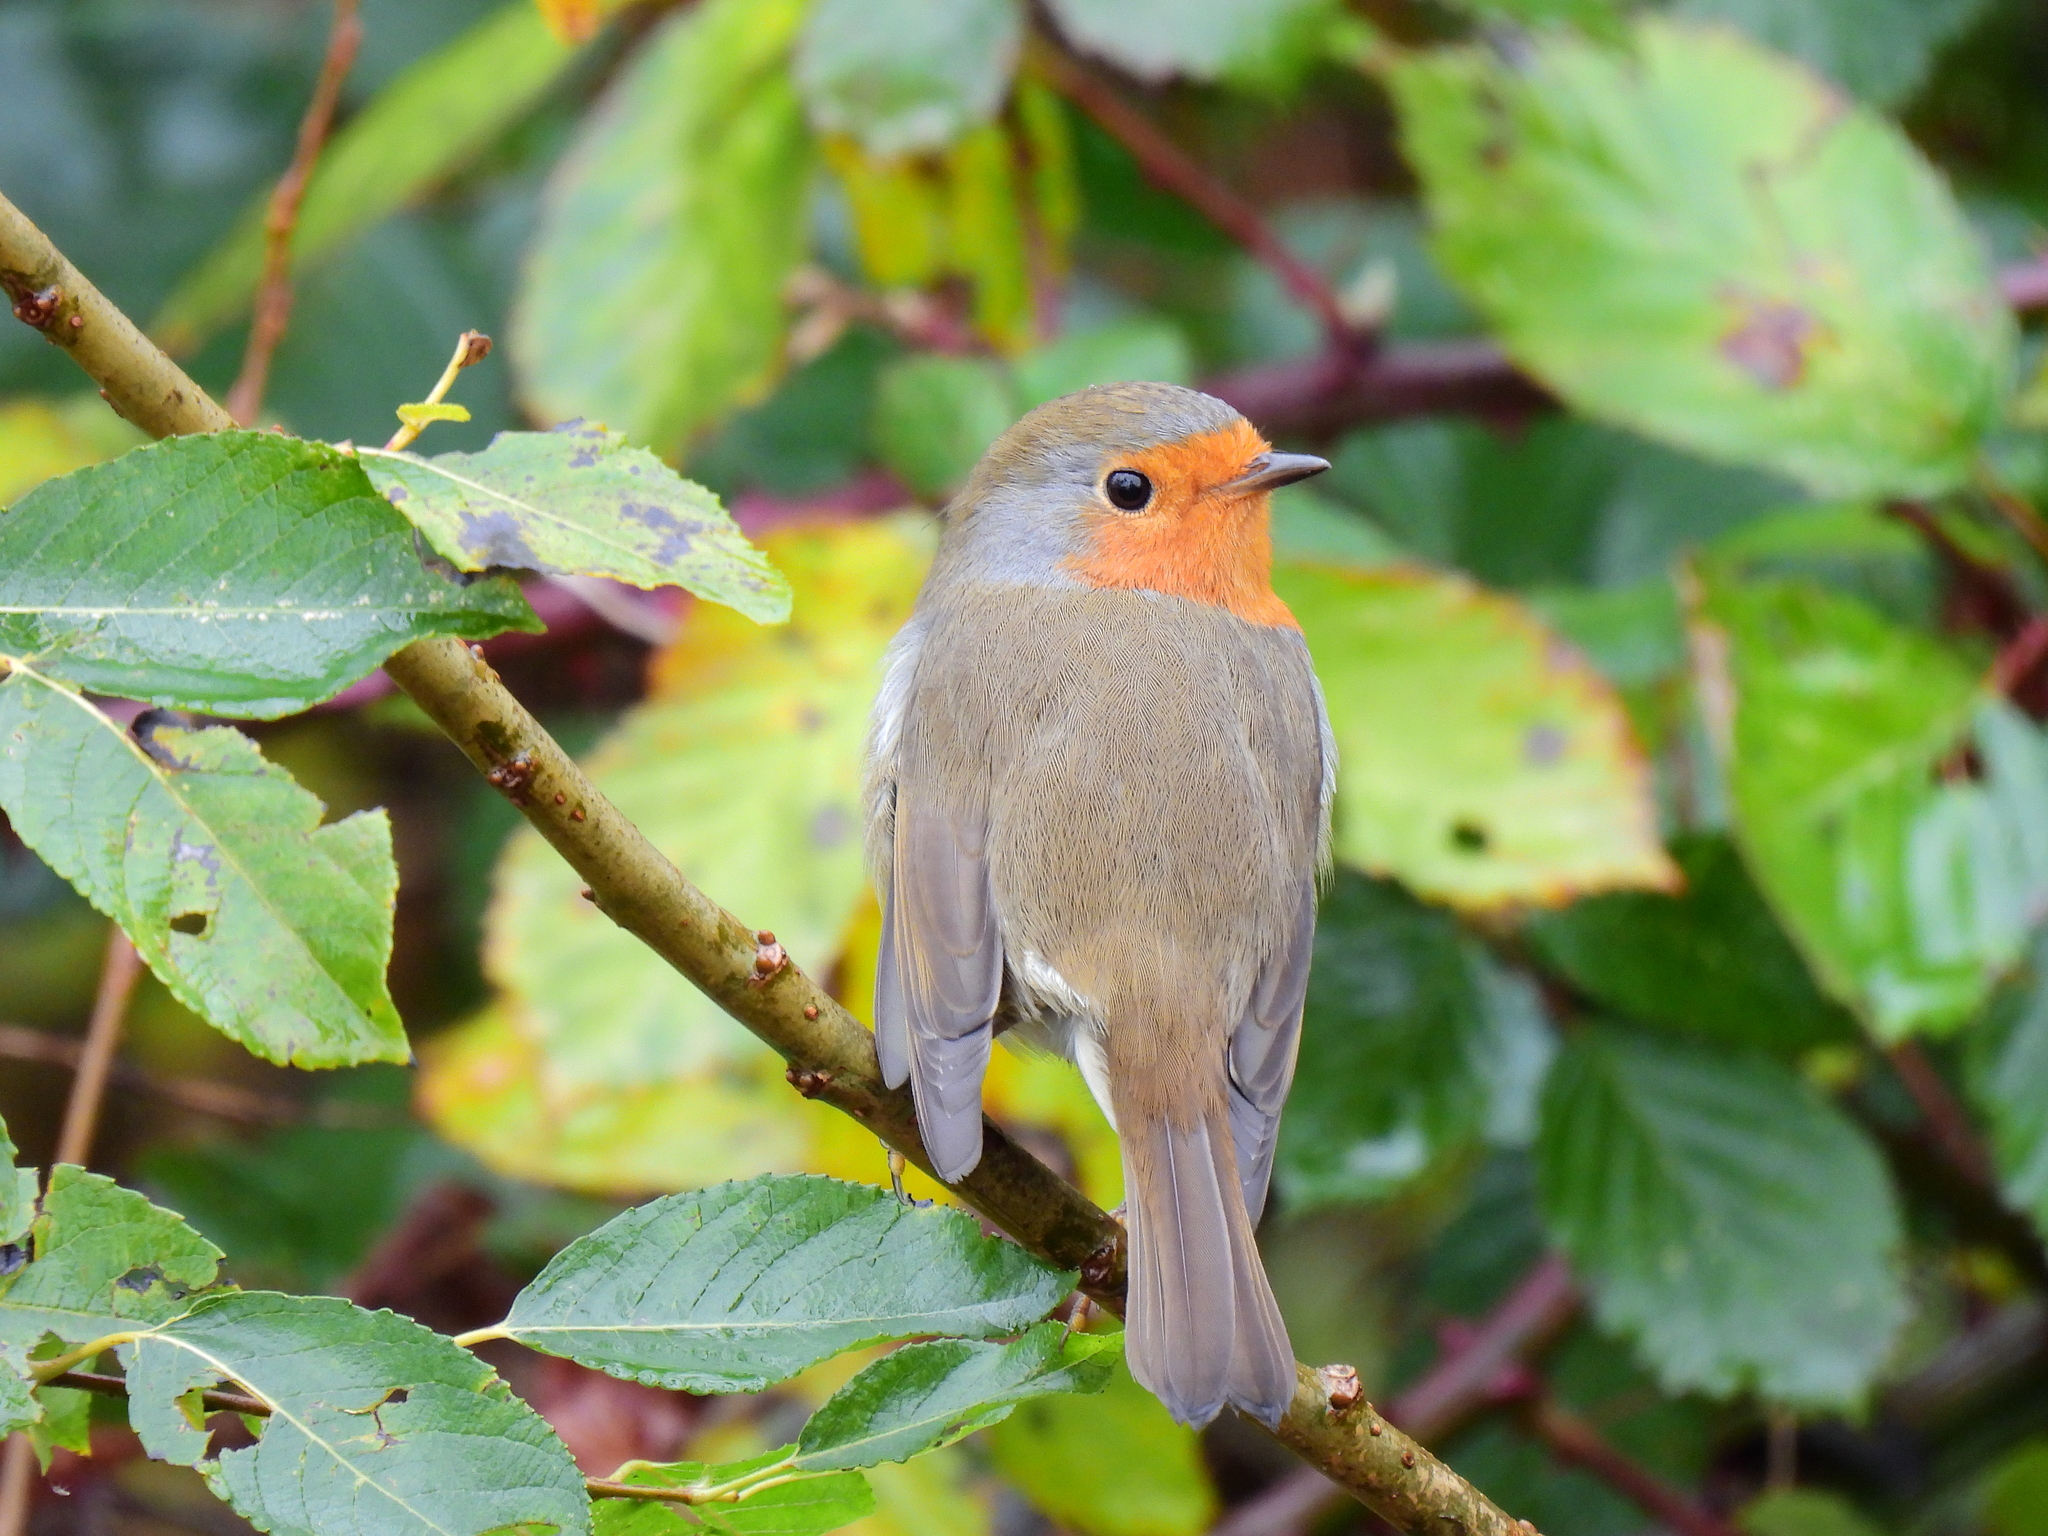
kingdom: Animalia
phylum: Chordata
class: Aves
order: Passeriformes
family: Muscicapidae
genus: Erithacus
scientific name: Erithacus rubecula
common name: European robin
